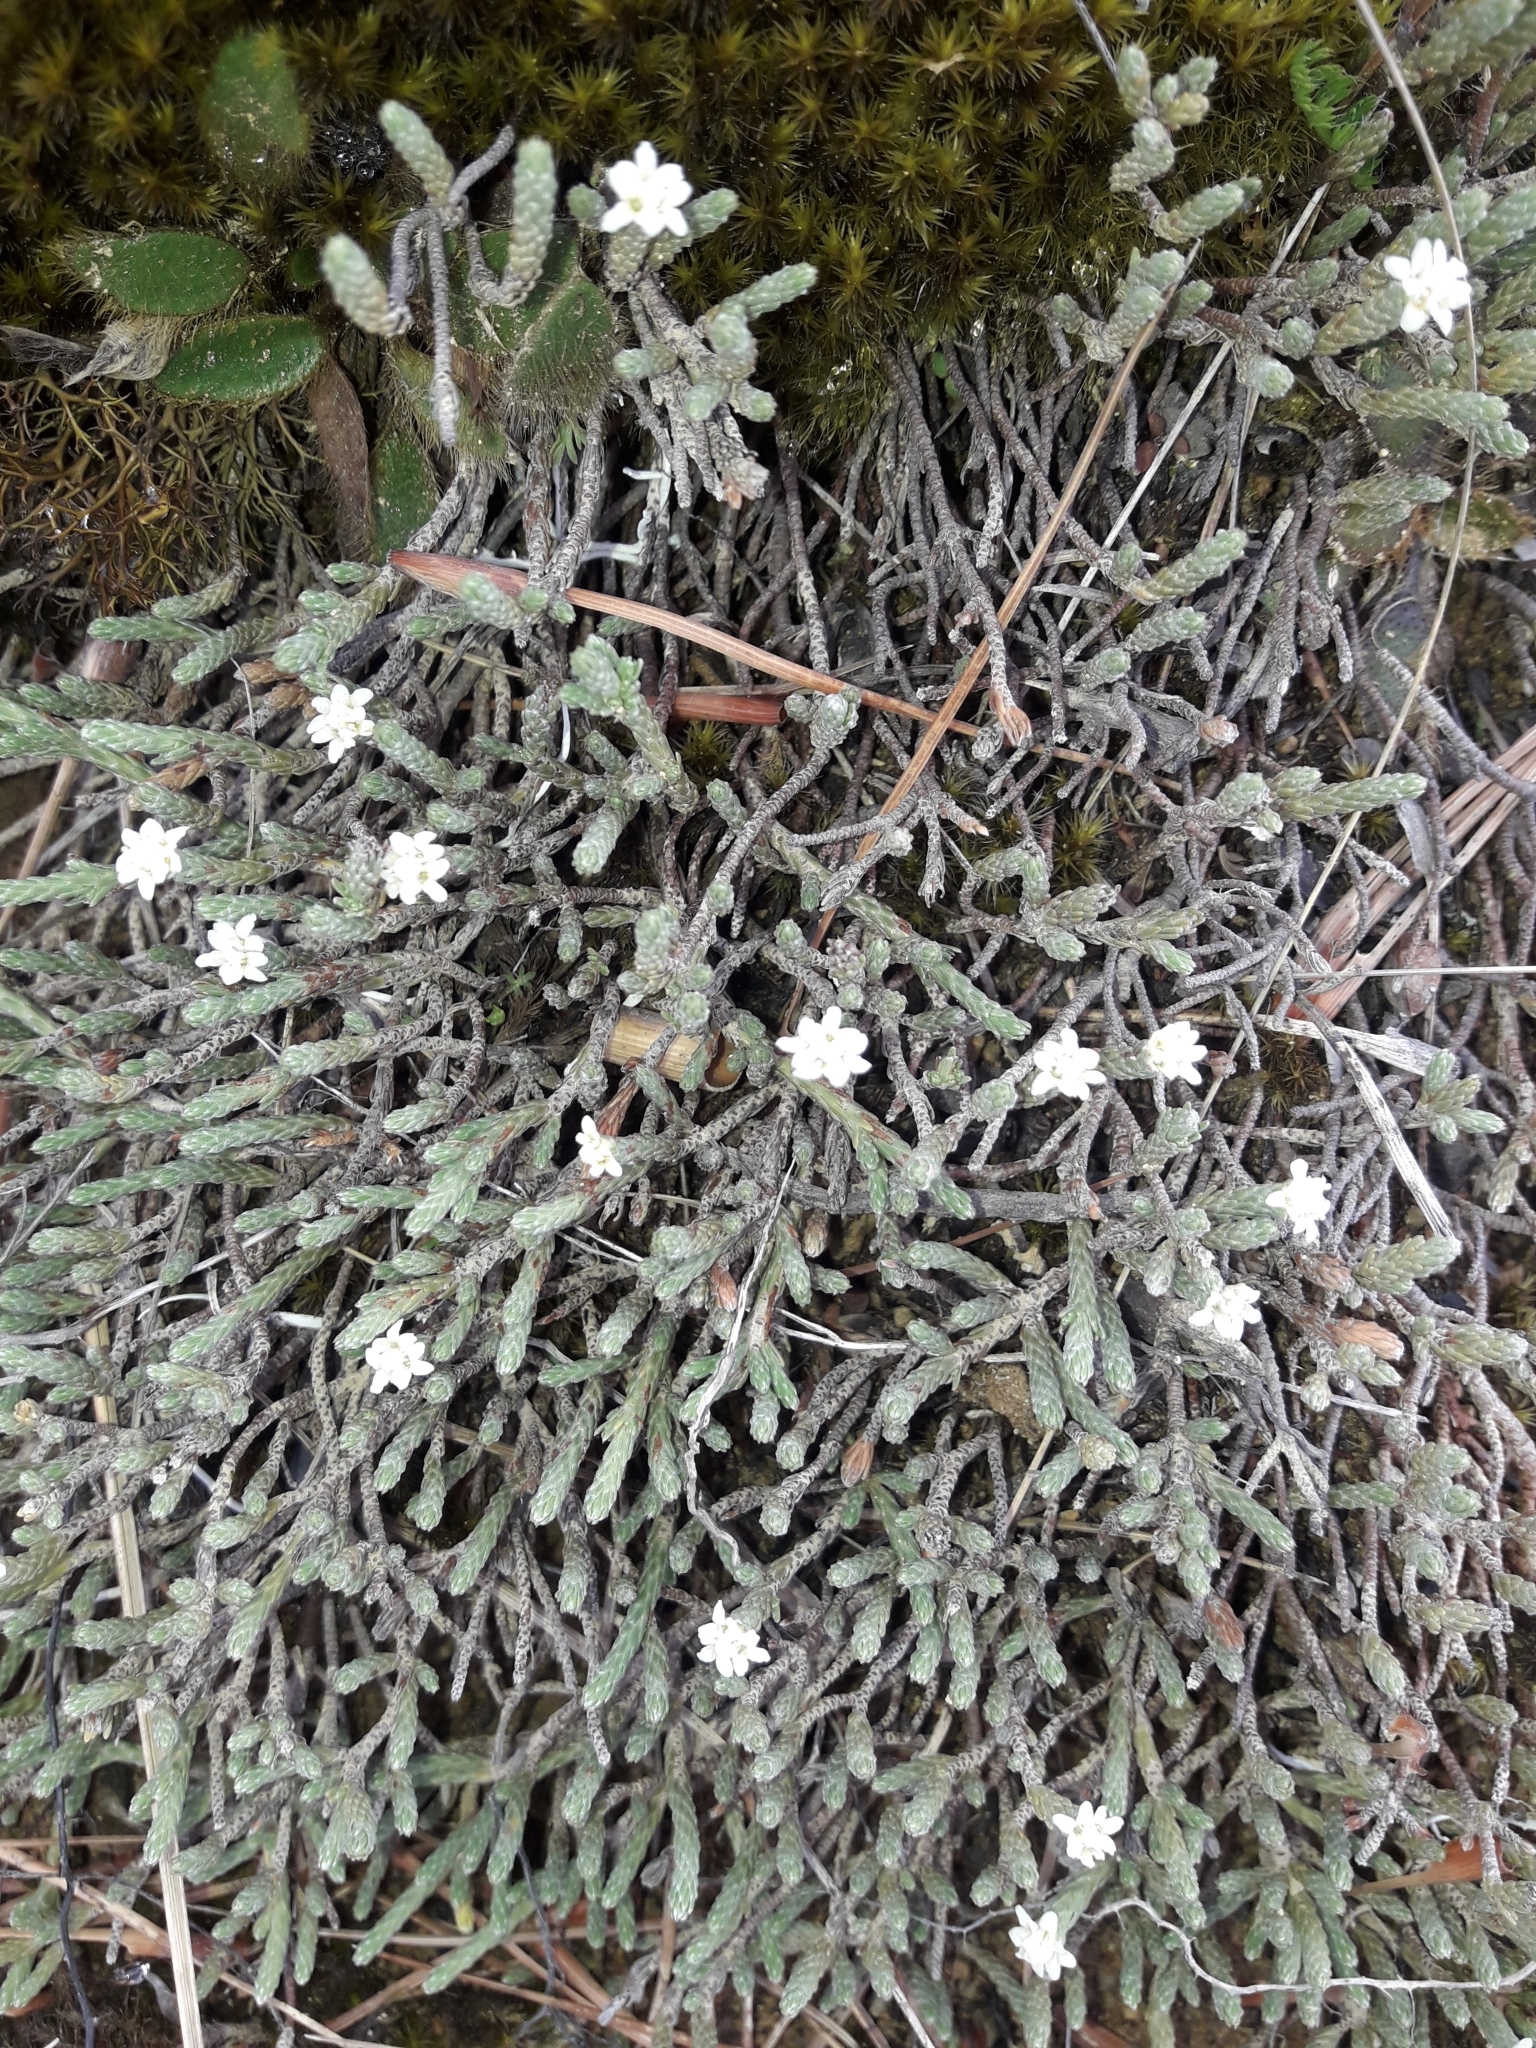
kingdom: Plantae
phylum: Tracheophyta
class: Magnoliopsida
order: Malvales
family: Thymelaeaceae
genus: Kelleria
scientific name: Kelleria dieffenbachii
